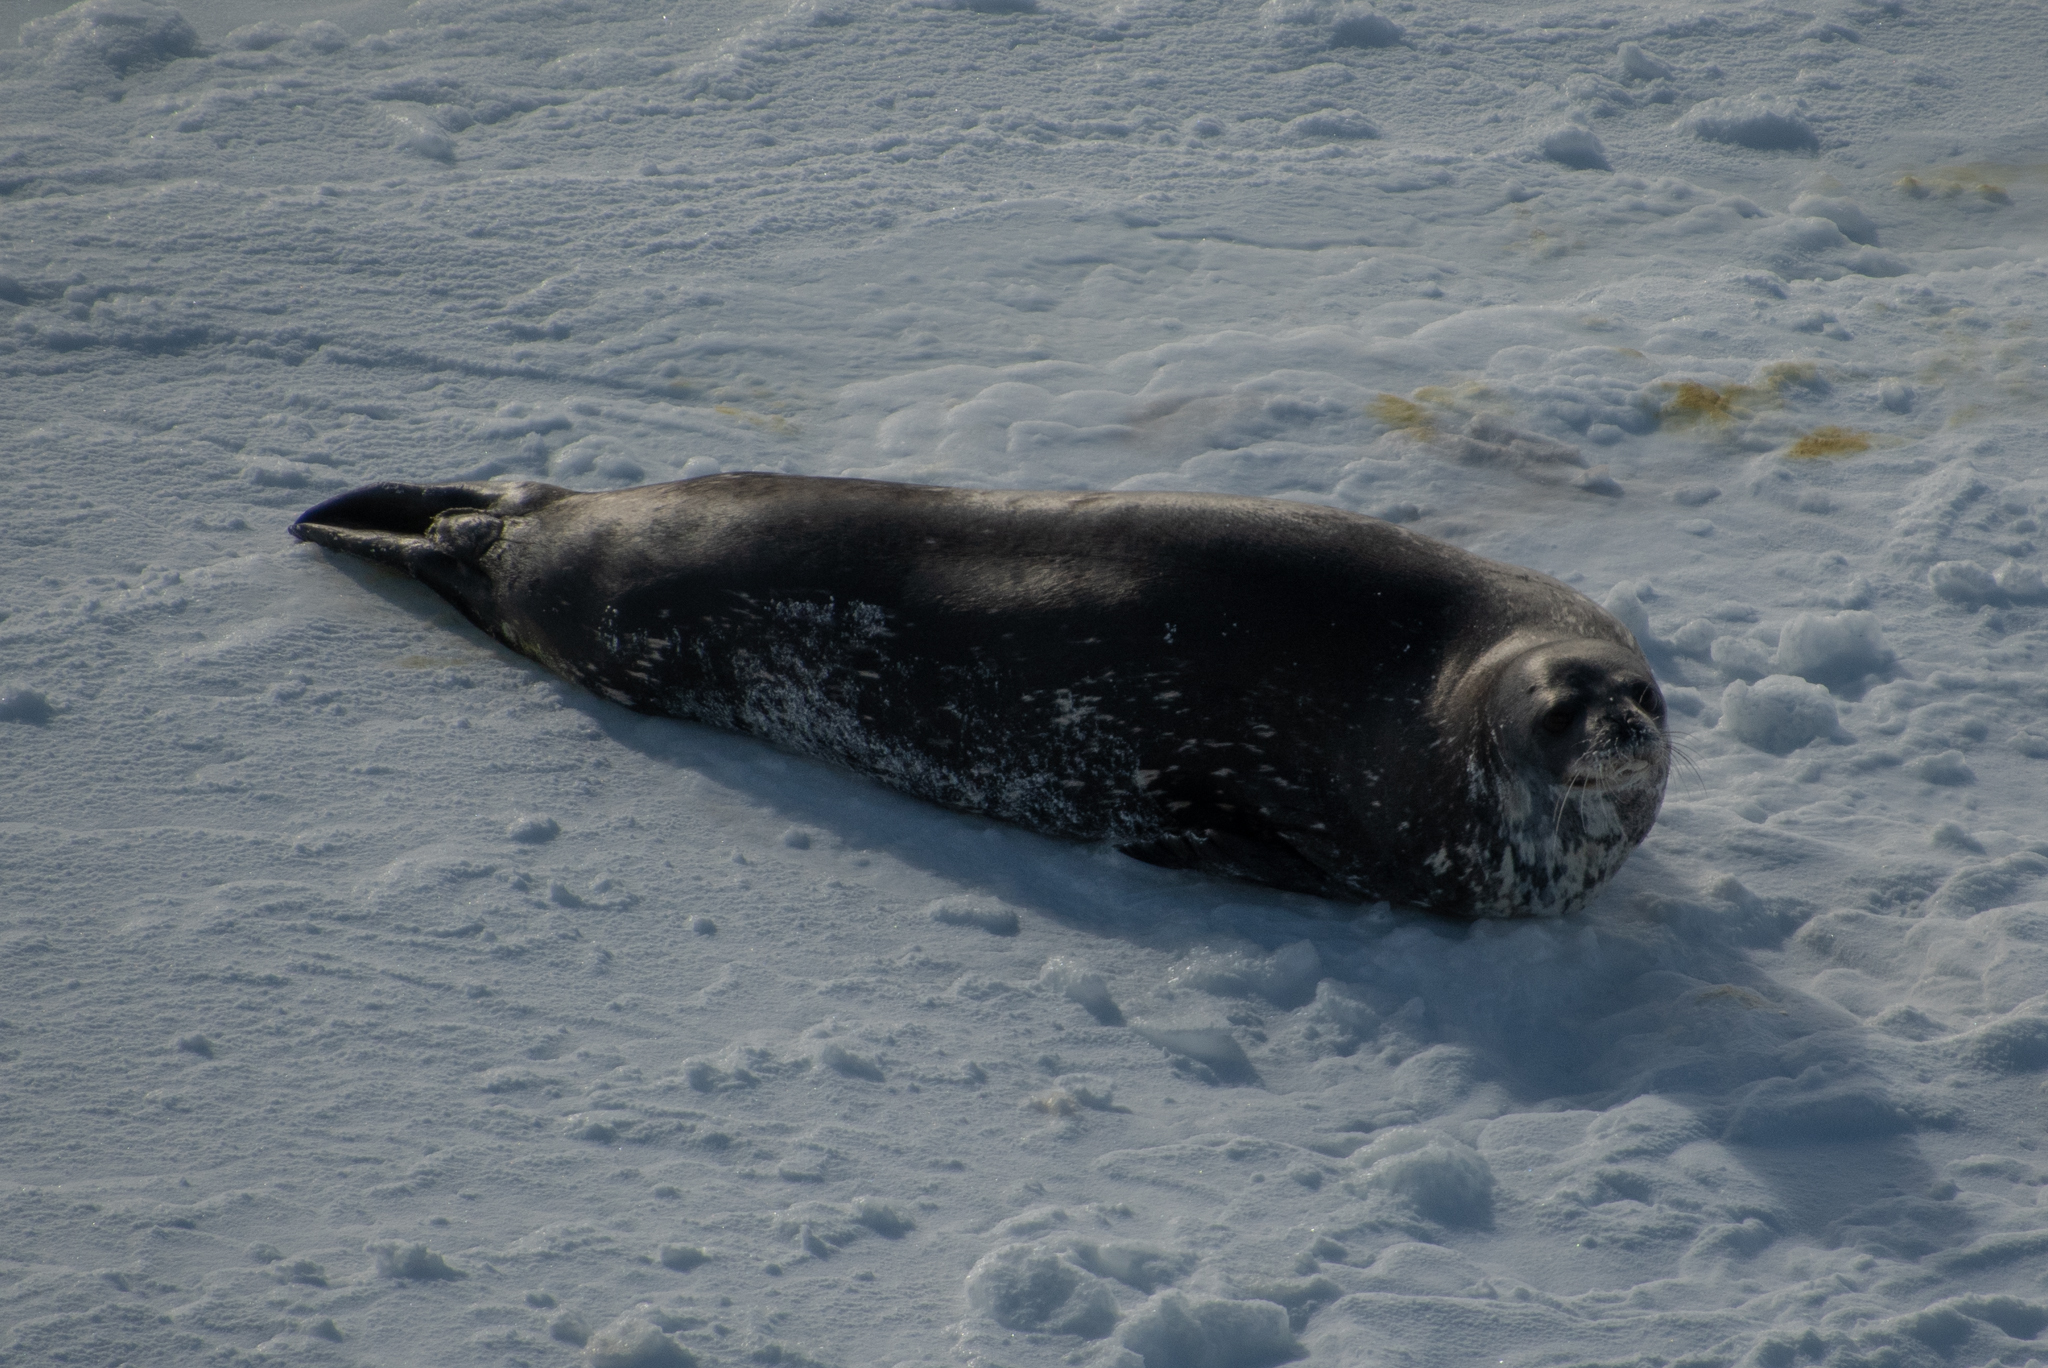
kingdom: Animalia
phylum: Chordata
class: Mammalia
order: Carnivora
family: Phocidae
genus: Leptonychotes
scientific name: Leptonychotes weddellii
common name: Weddell seal
